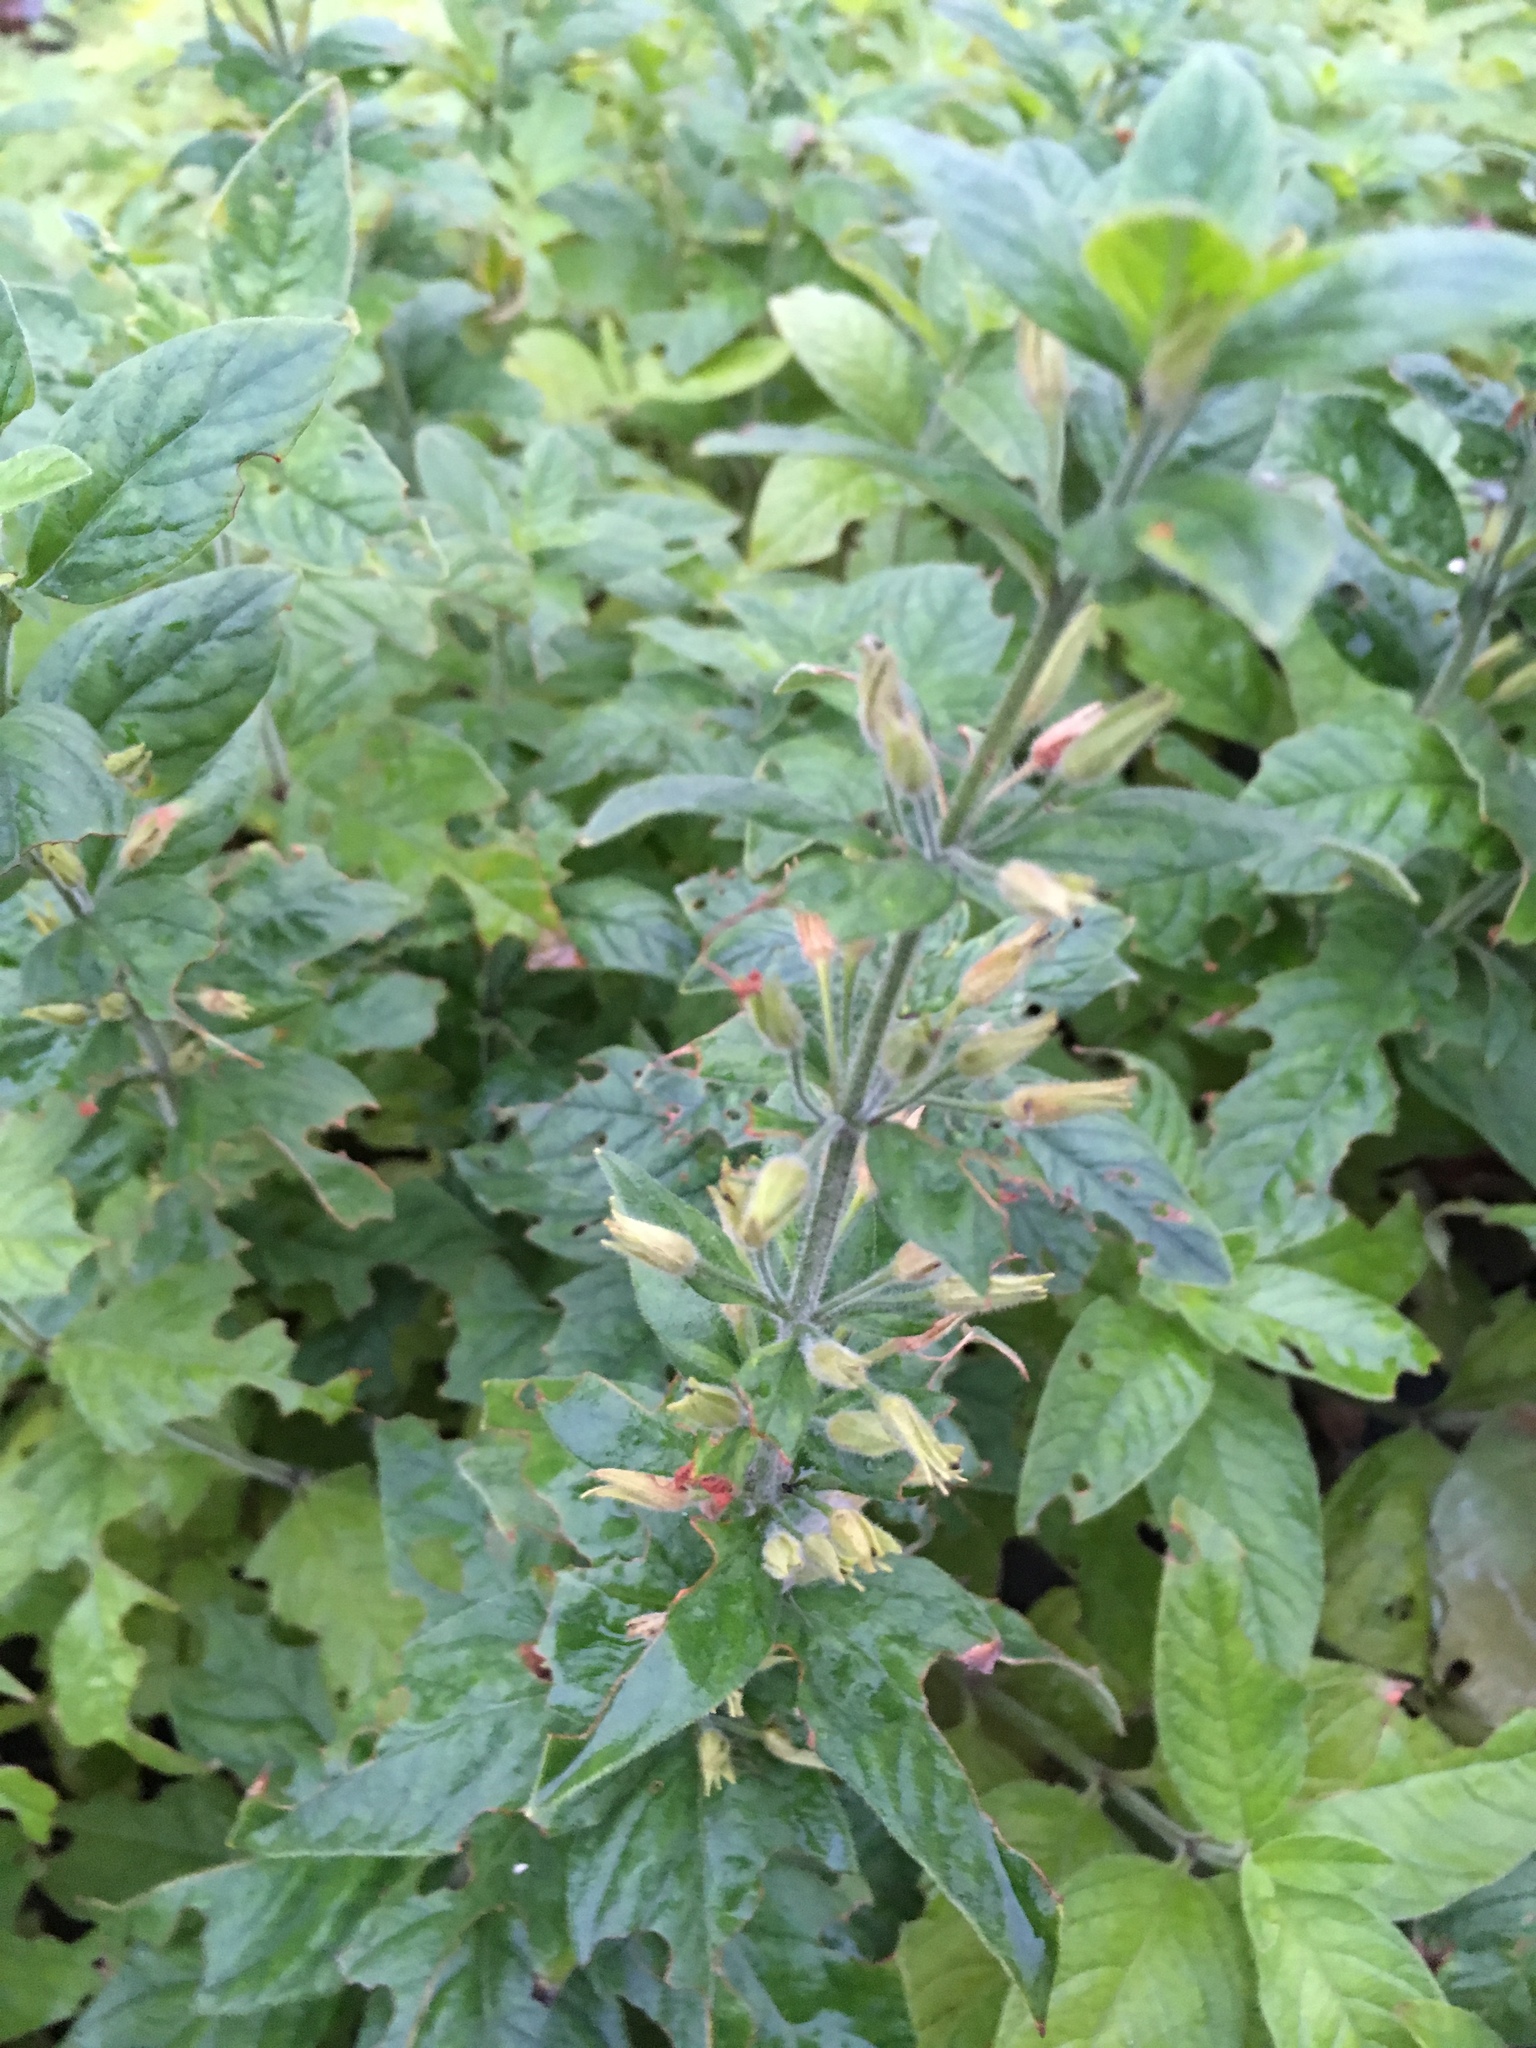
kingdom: Plantae
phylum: Tracheophyta
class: Magnoliopsida
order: Ericales
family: Primulaceae
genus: Lysimachia
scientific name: Lysimachia punctata
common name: Dotted loosestrife
